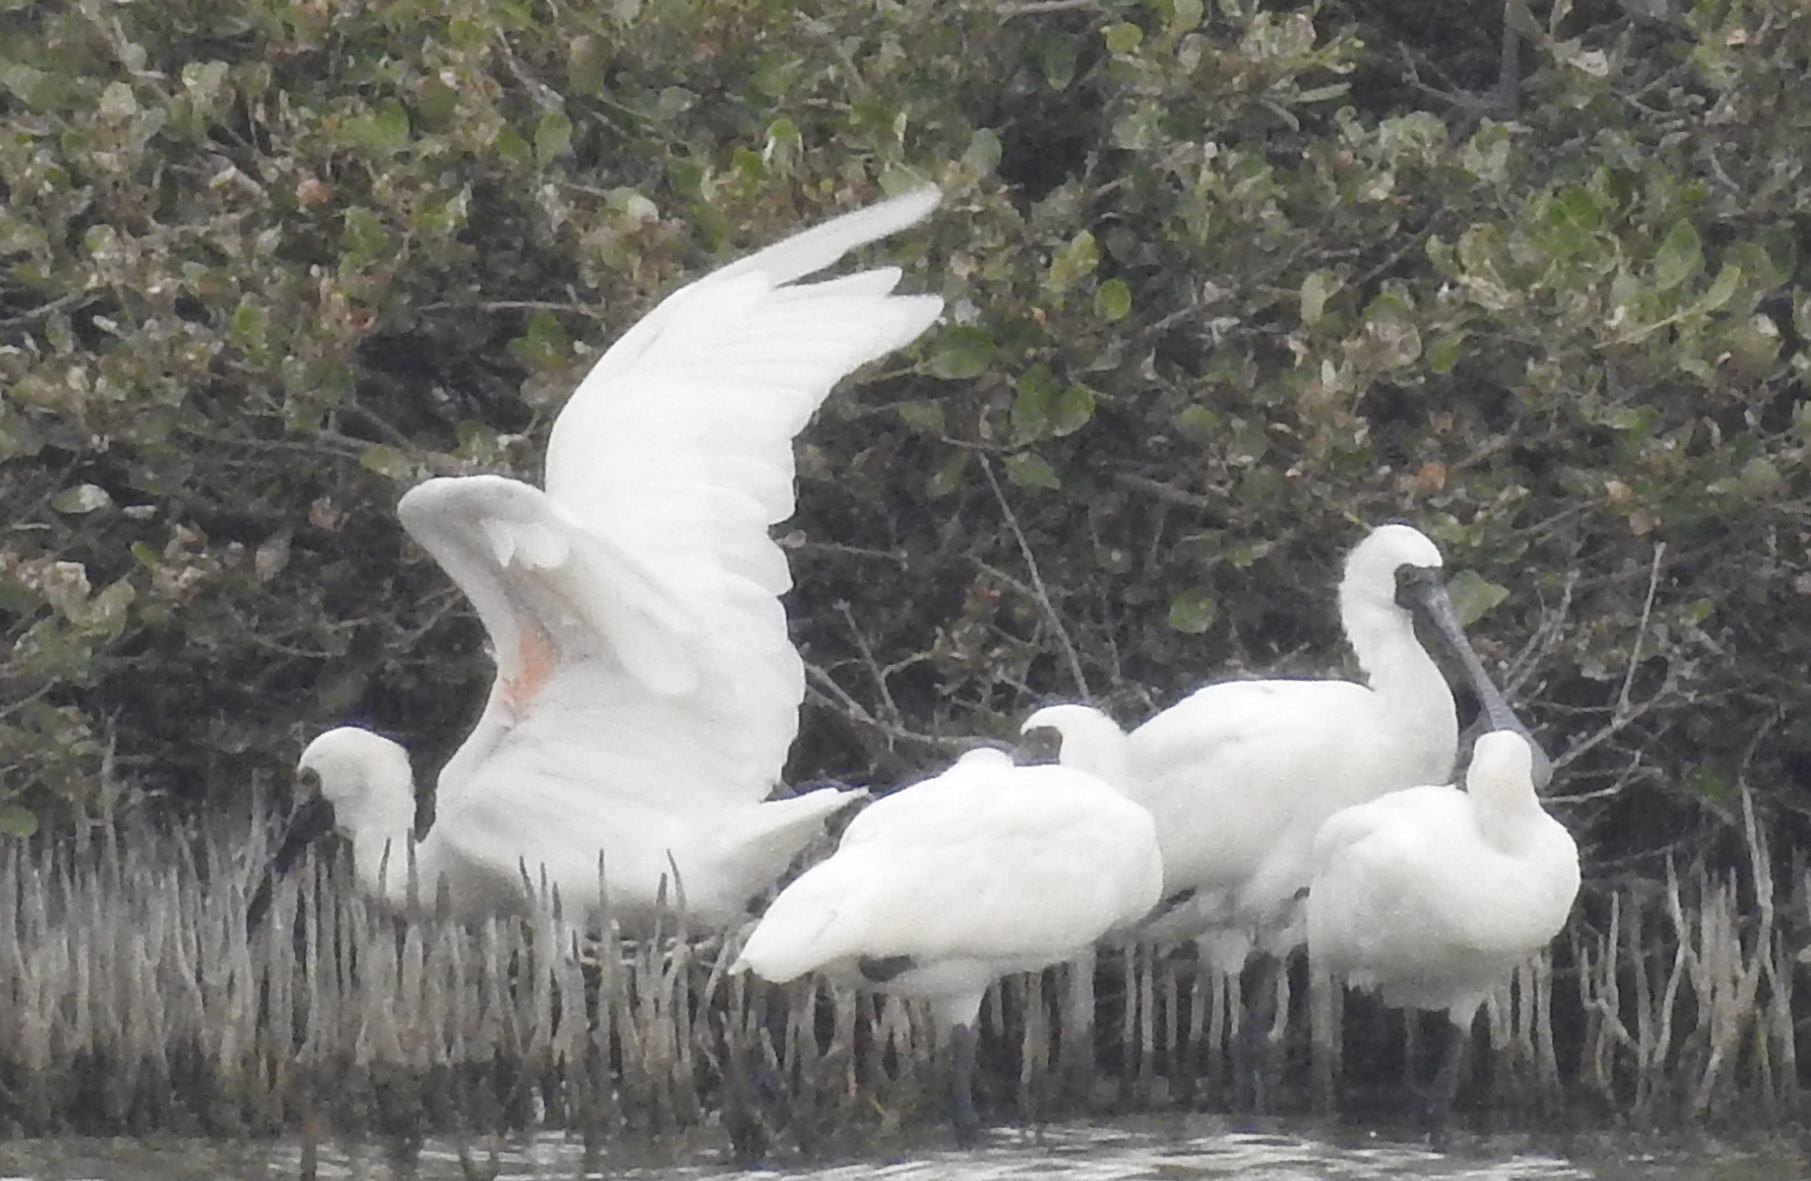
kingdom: Animalia
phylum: Chordata
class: Aves
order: Pelecaniformes
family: Threskiornithidae
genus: Platalea
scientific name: Platalea minor
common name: Black-faced spoonbill
